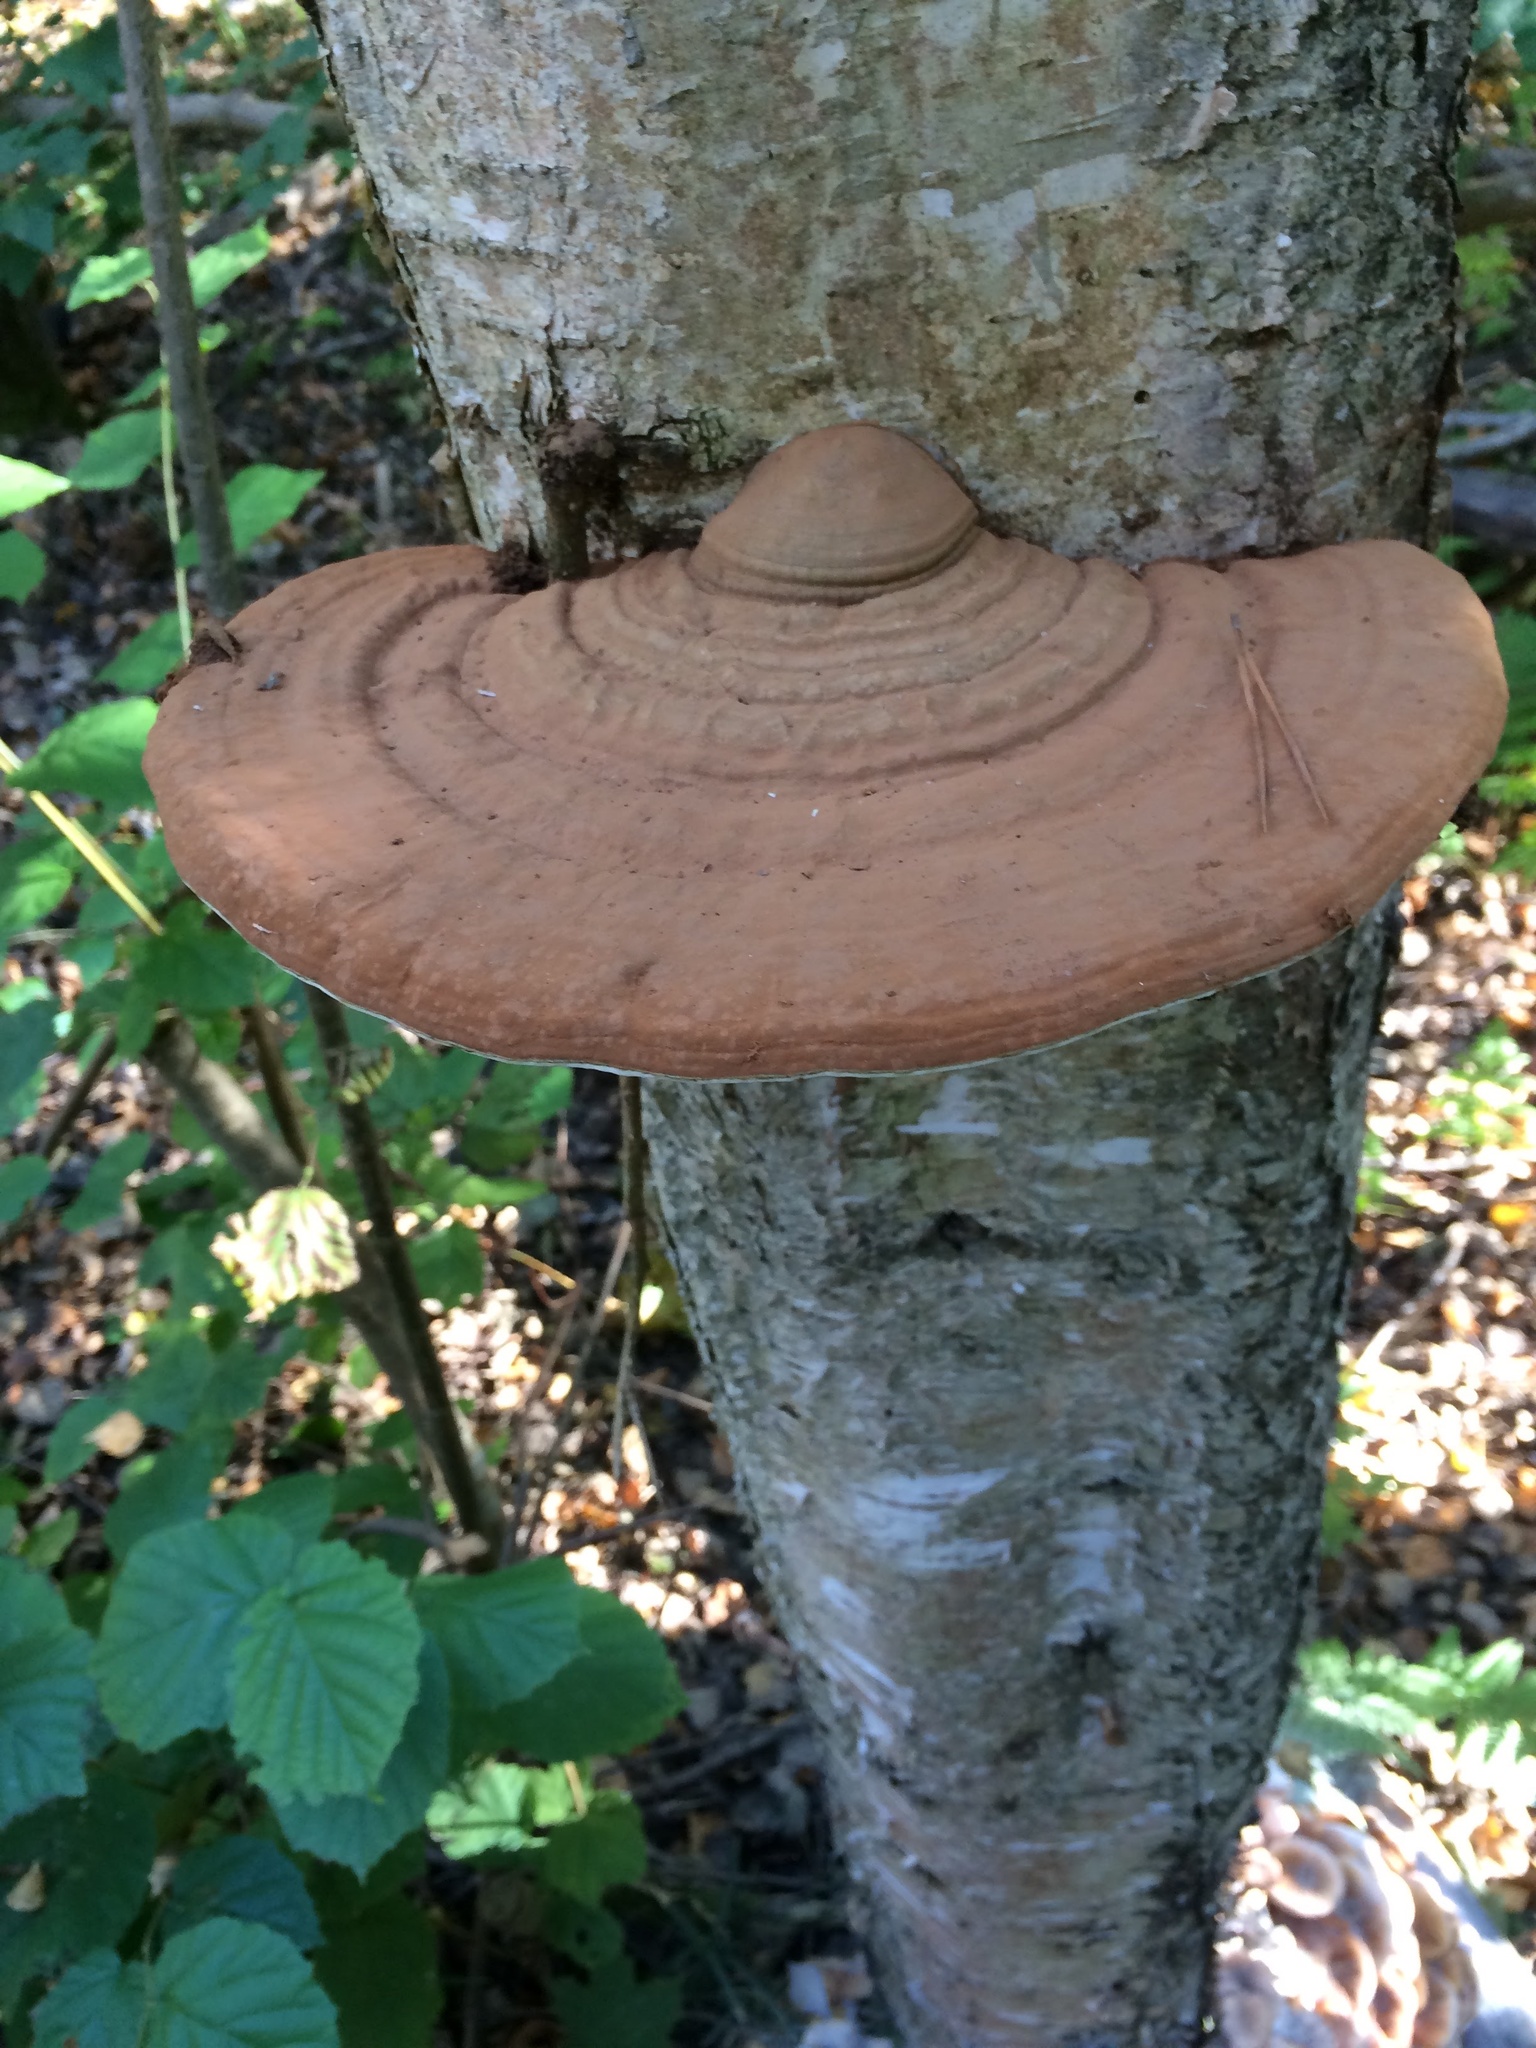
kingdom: Fungi
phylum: Basidiomycota
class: Agaricomycetes
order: Polyporales
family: Polyporaceae
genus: Ganoderma
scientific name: Ganoderma applanatum
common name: Artist's bracket
